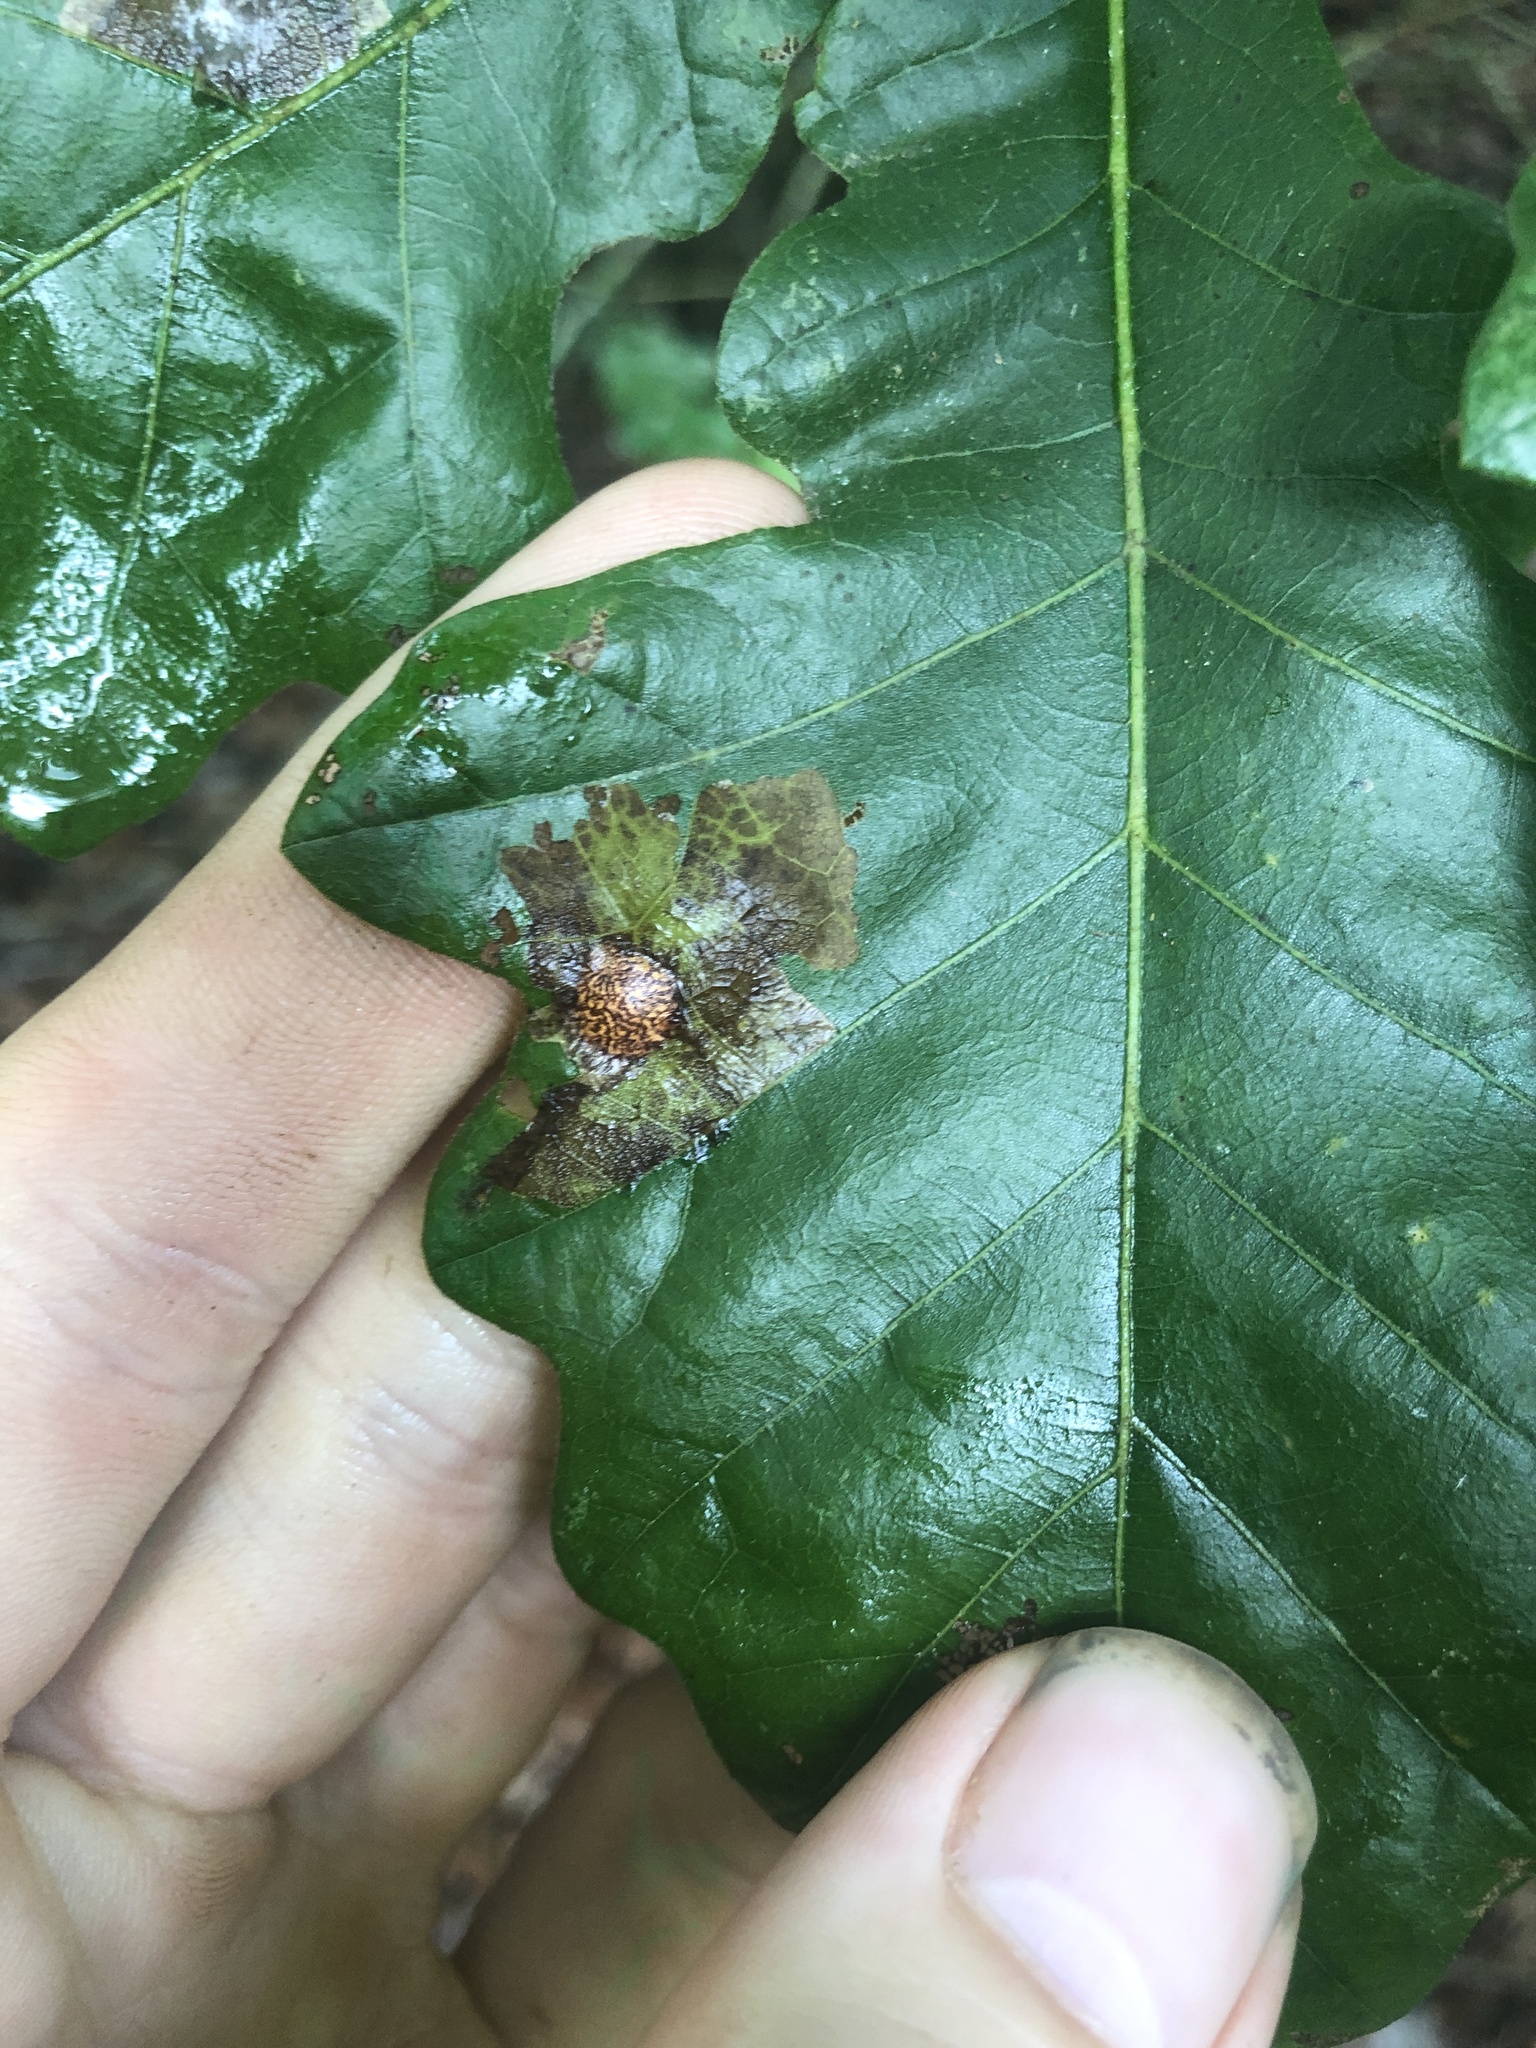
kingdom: Animalia
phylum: Arthropoda
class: Insecta
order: Lepidoptera
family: Tischeriidae
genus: Tischeria
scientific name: Tischeria quercitella
